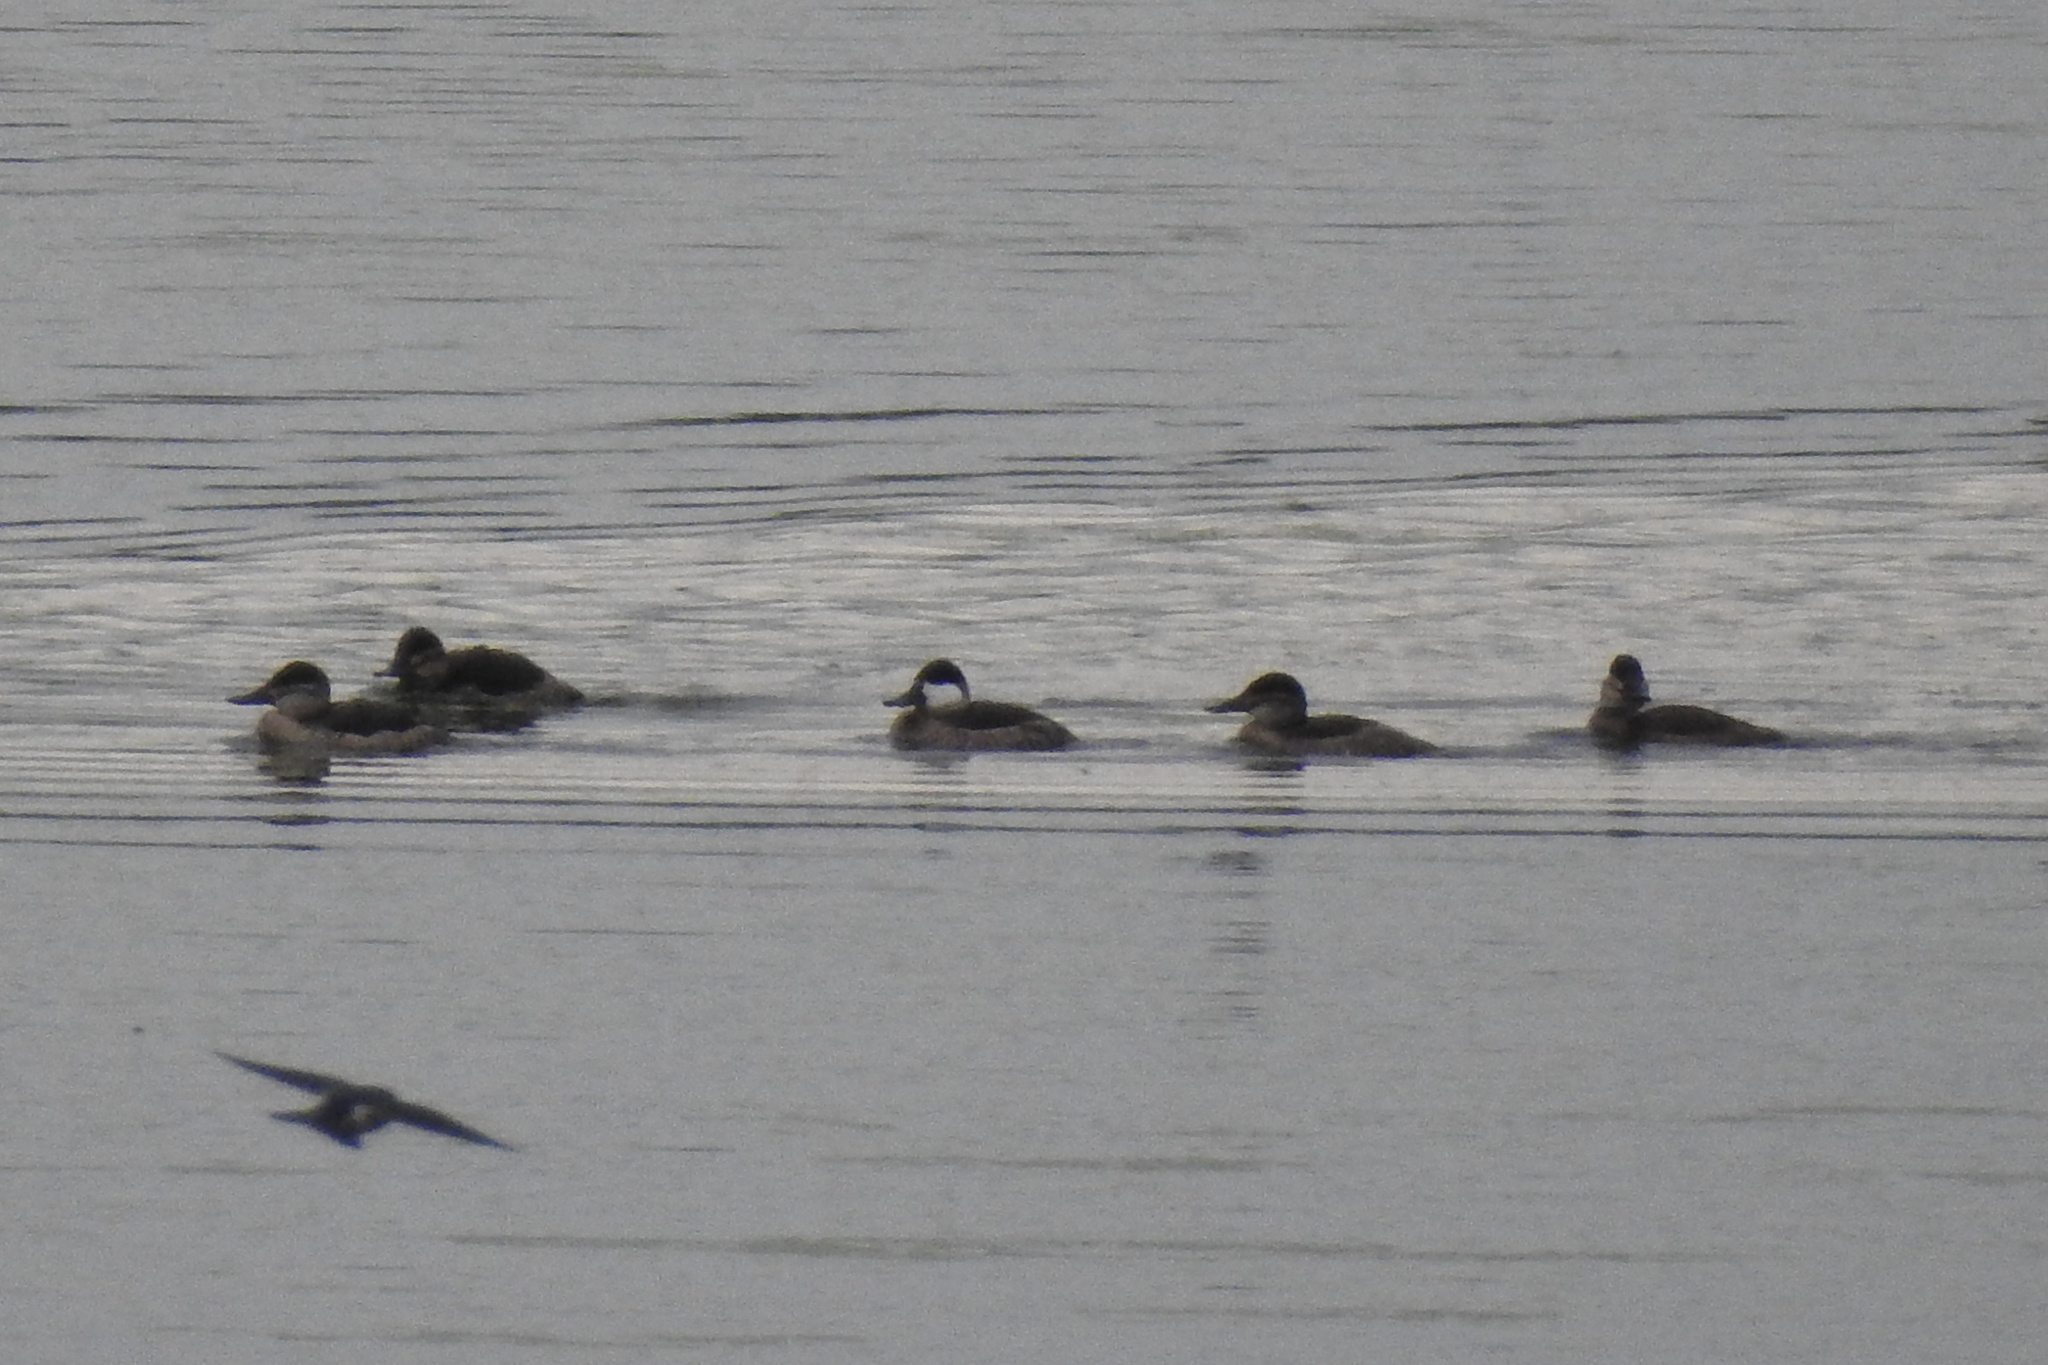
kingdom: Animalia
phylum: Chordata
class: Aves
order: Anseriformes
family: Anatidae
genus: Oxyura
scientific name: Oxyura jamaicensis
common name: Ruddy duck
